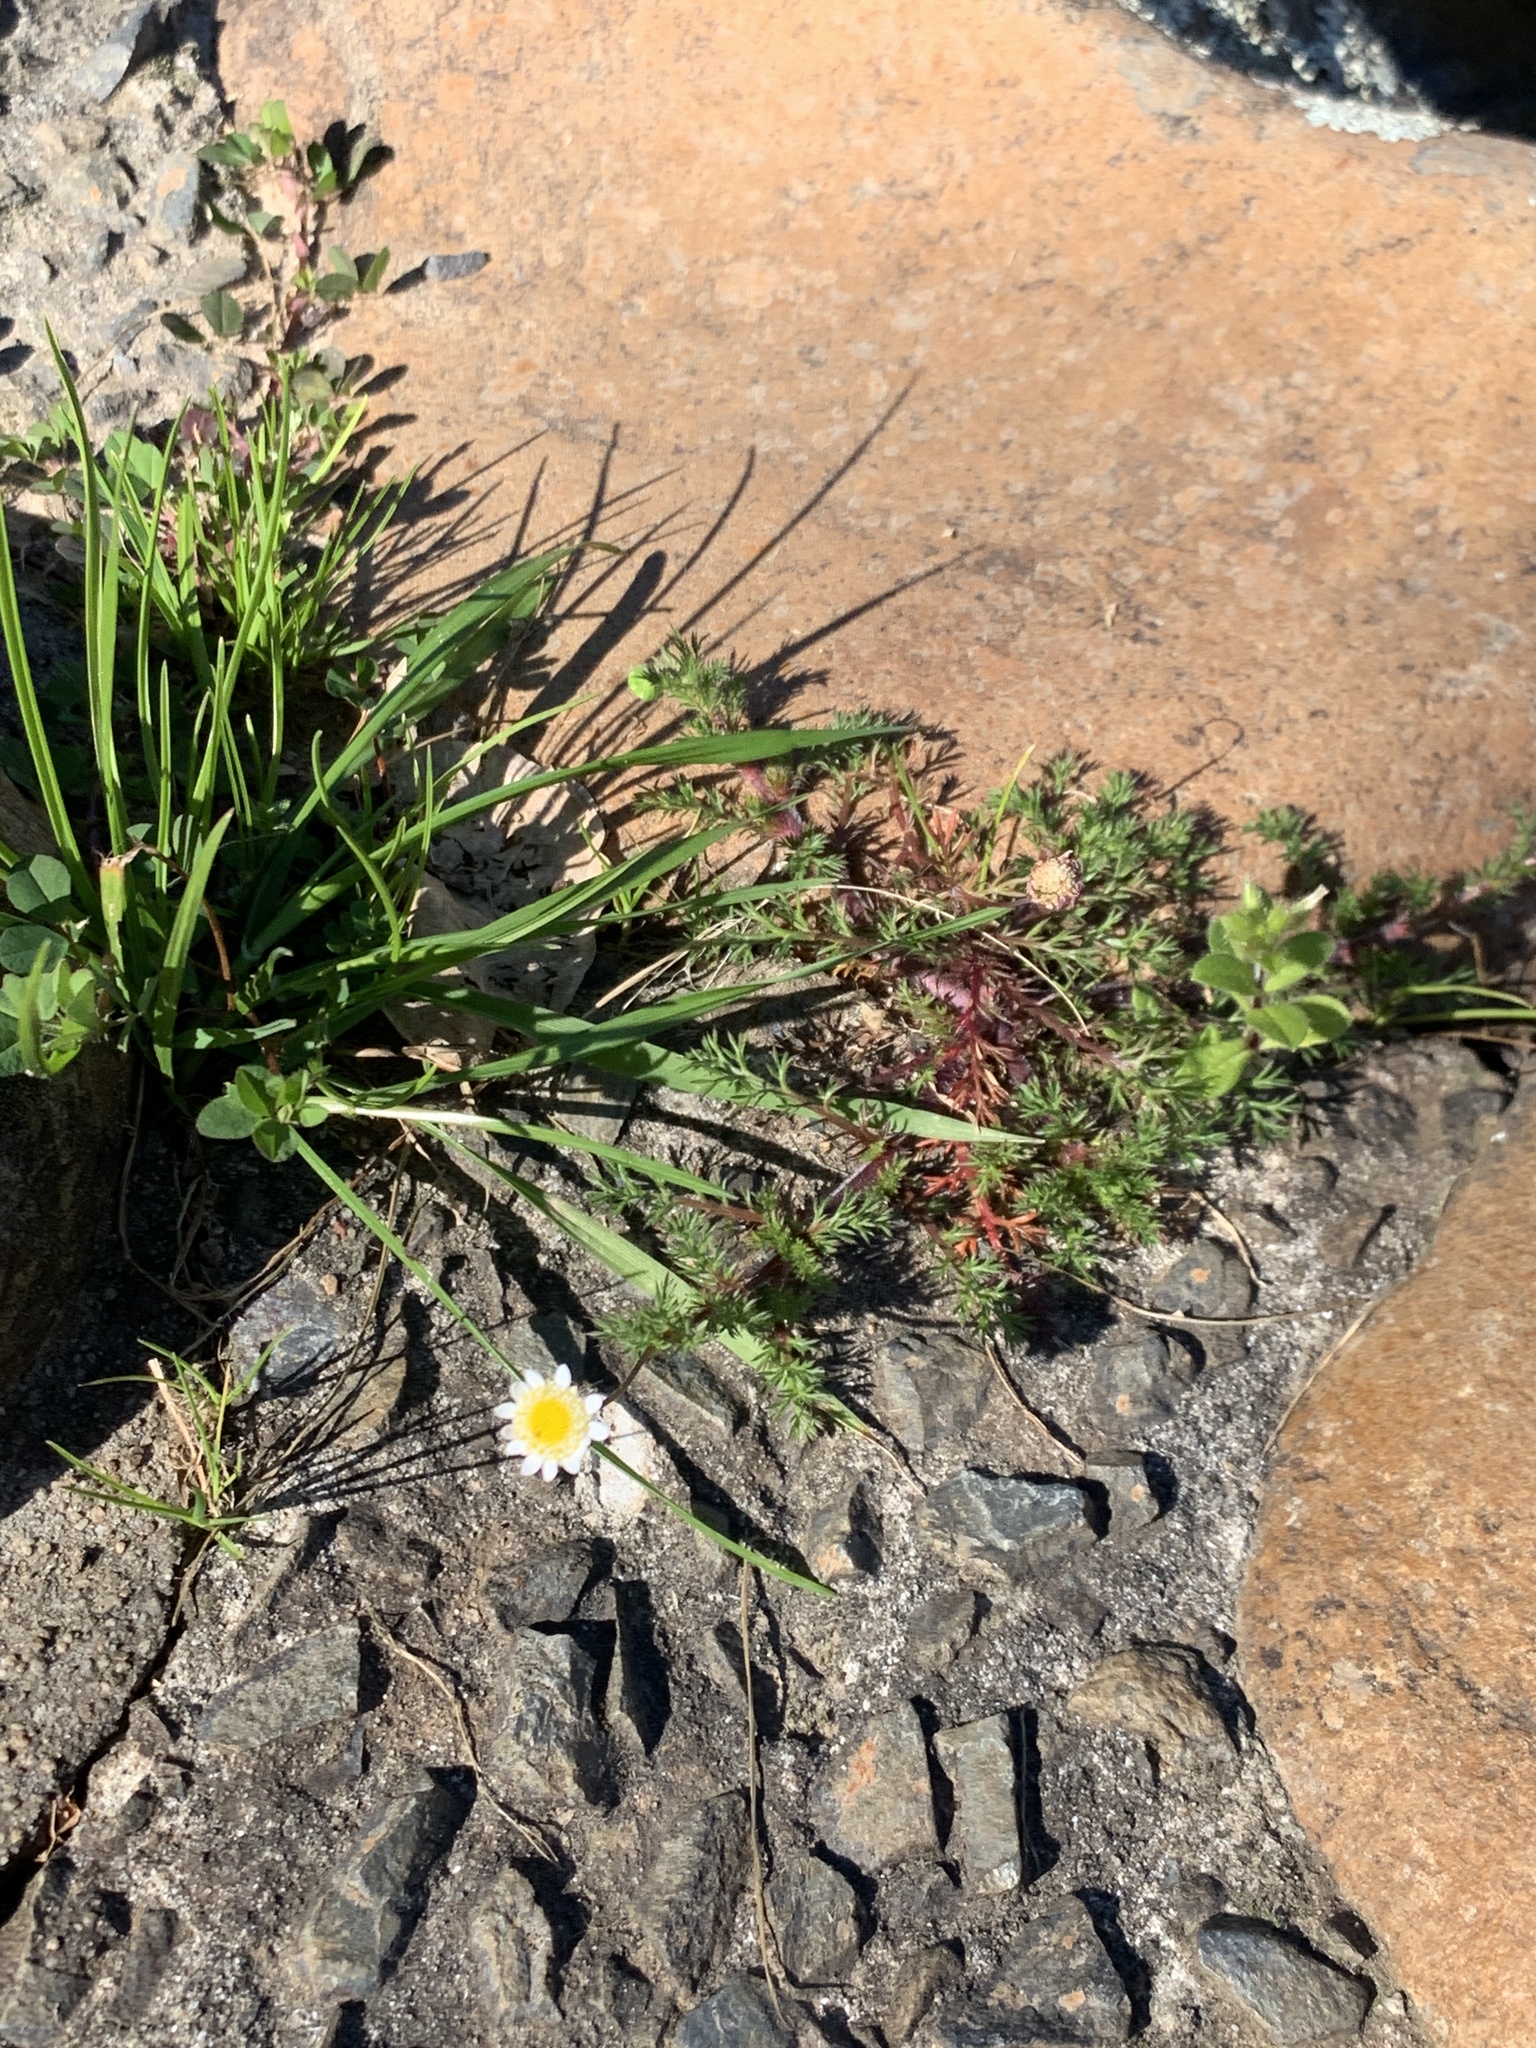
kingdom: Plantae
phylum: Tracheophyta
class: Magnoliopsida
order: Asterales
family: Asteraceae
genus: Cotula
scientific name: Cotula turbinata
